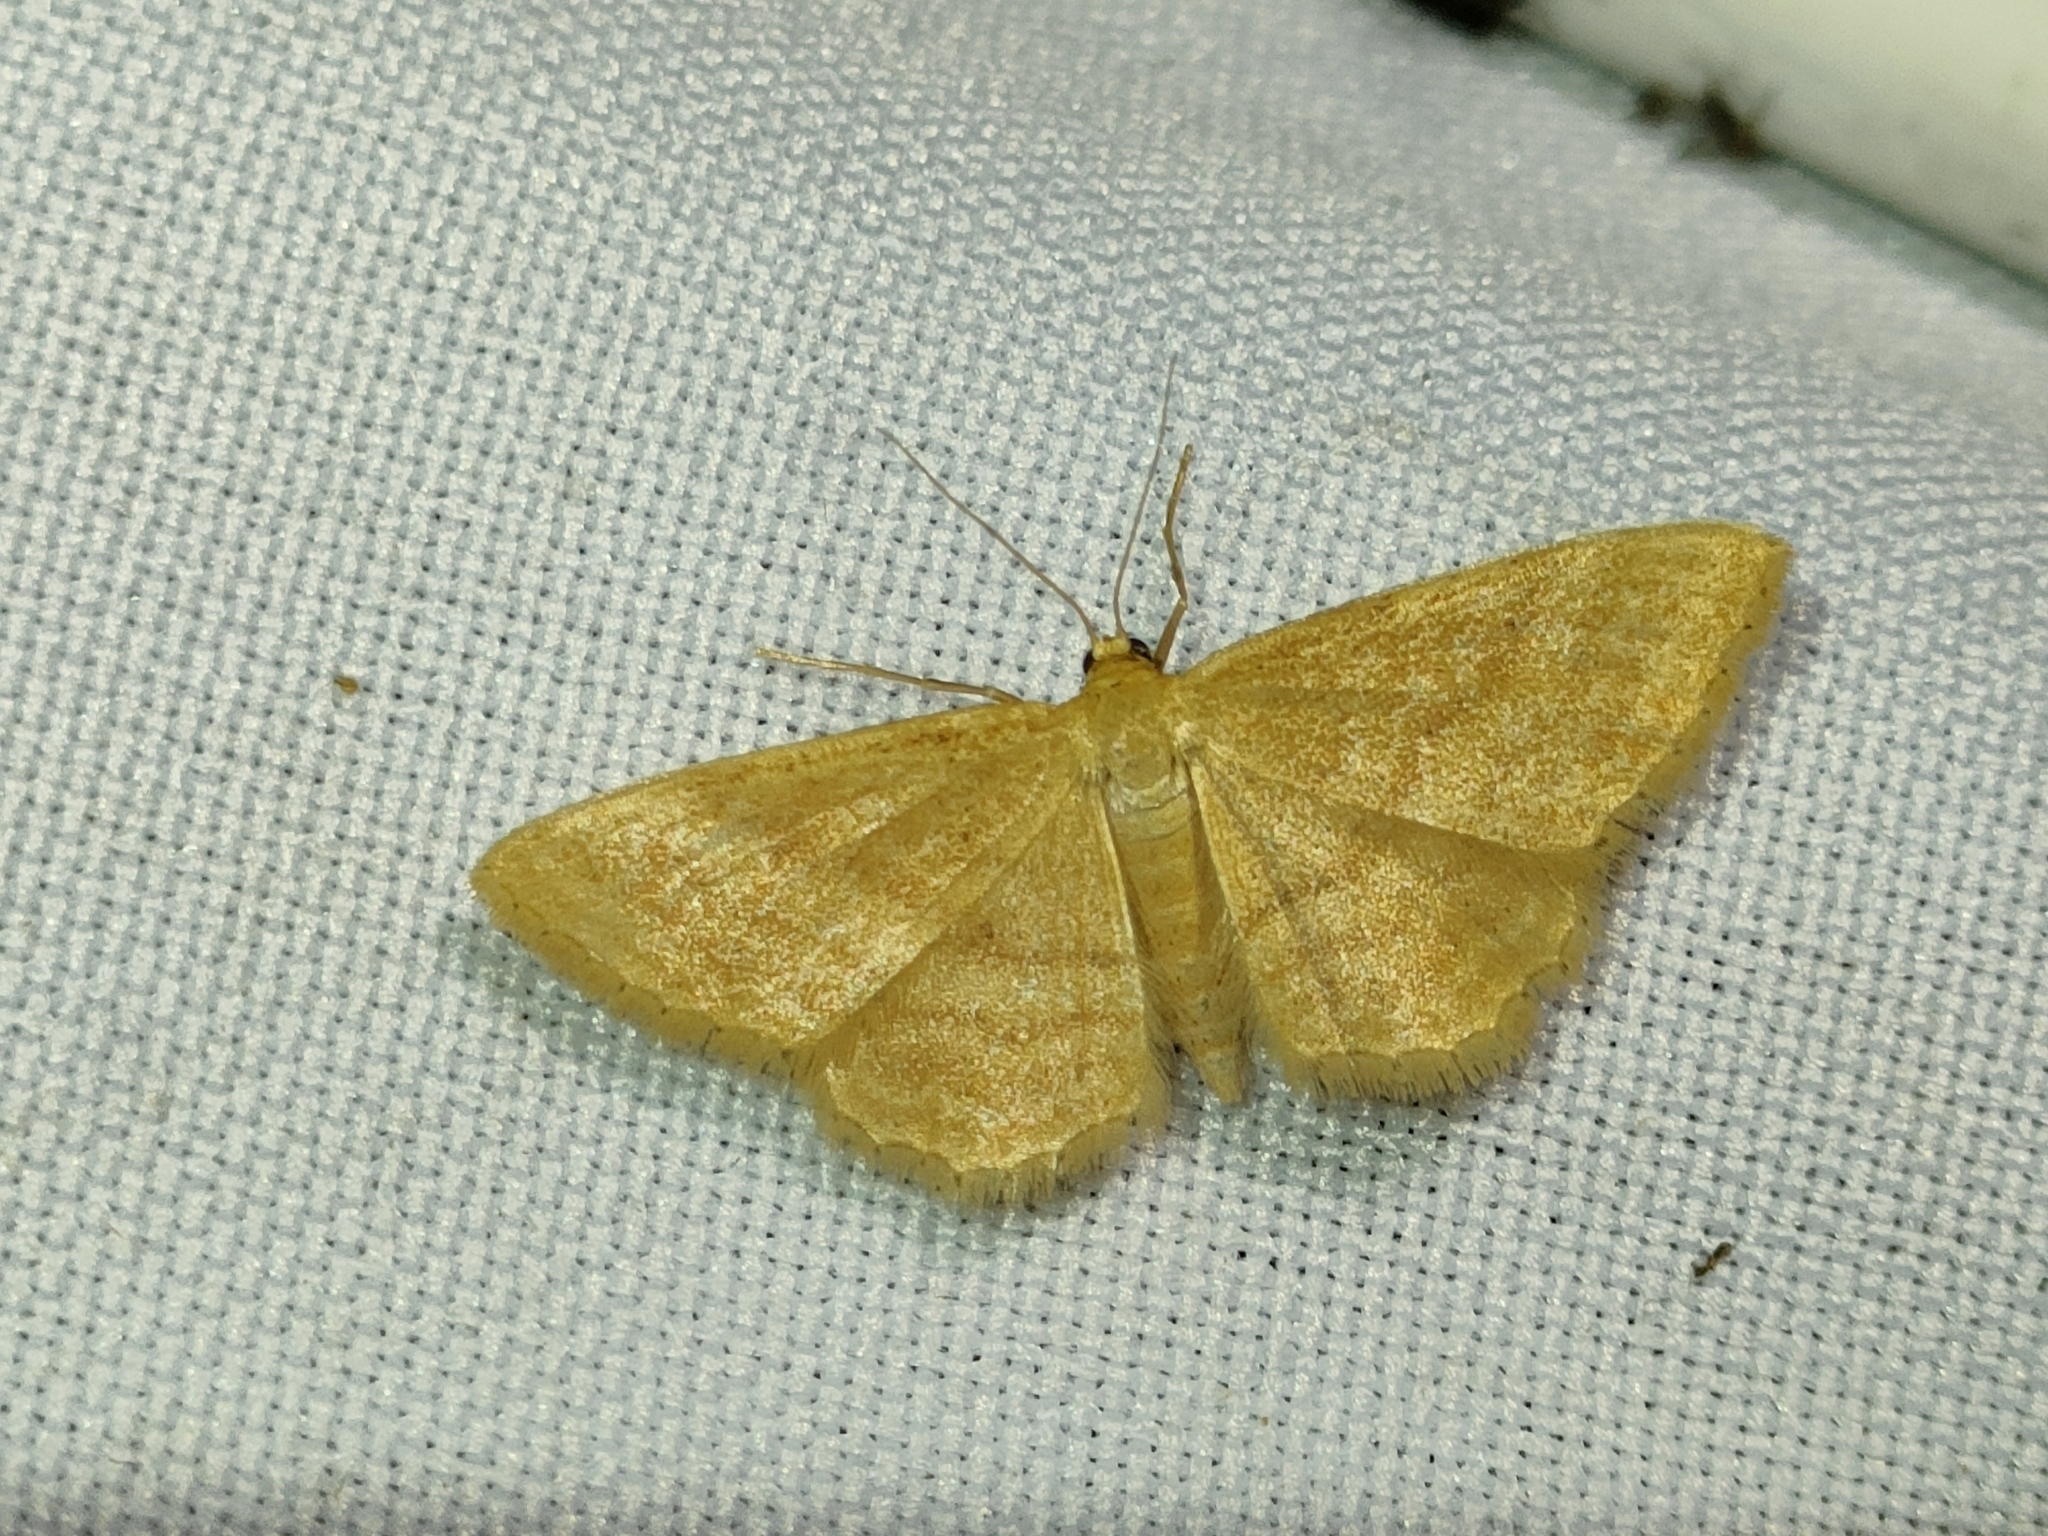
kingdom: Animalia
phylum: Arthropoda
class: Insecta
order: Lepidoptera
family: Geometridae
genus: Idaea
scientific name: Idaea ochrata
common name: Bright wave
